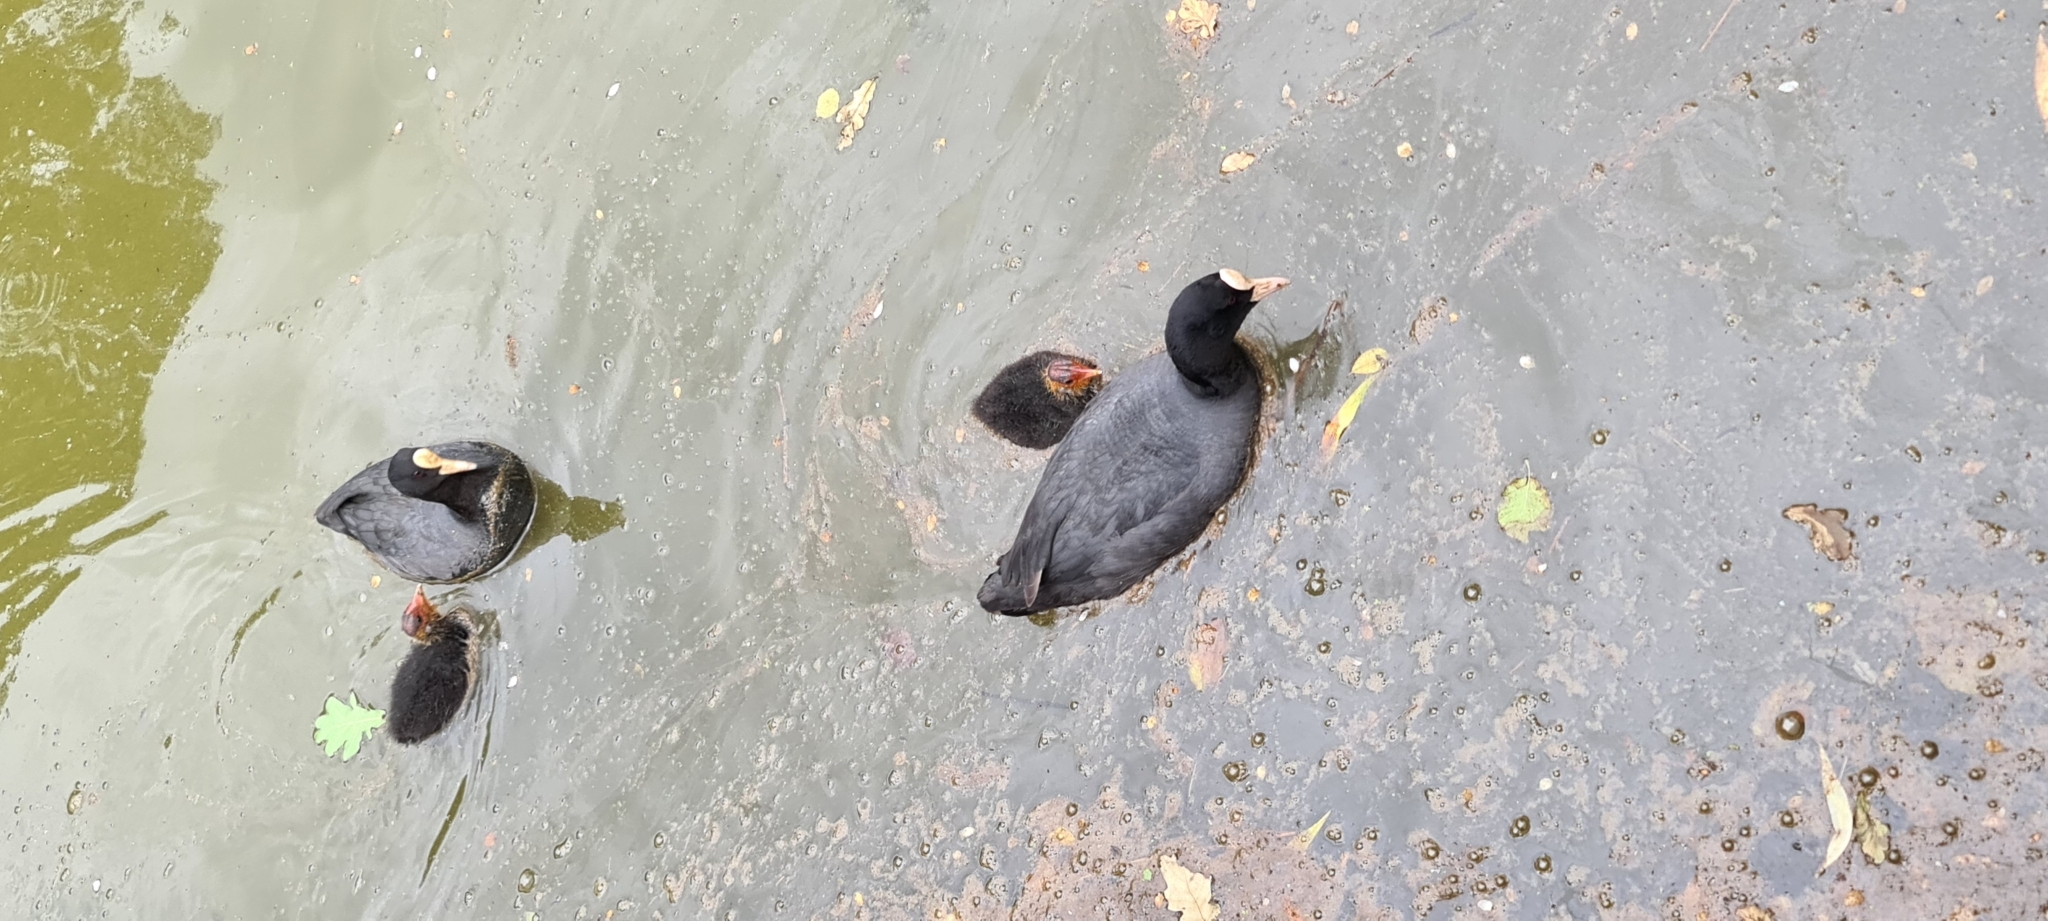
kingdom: Animalia
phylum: Chordata
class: Aves
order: Gruiformes
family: Rallidae
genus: Fulica
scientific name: Fulica atra
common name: Eurasian coot
